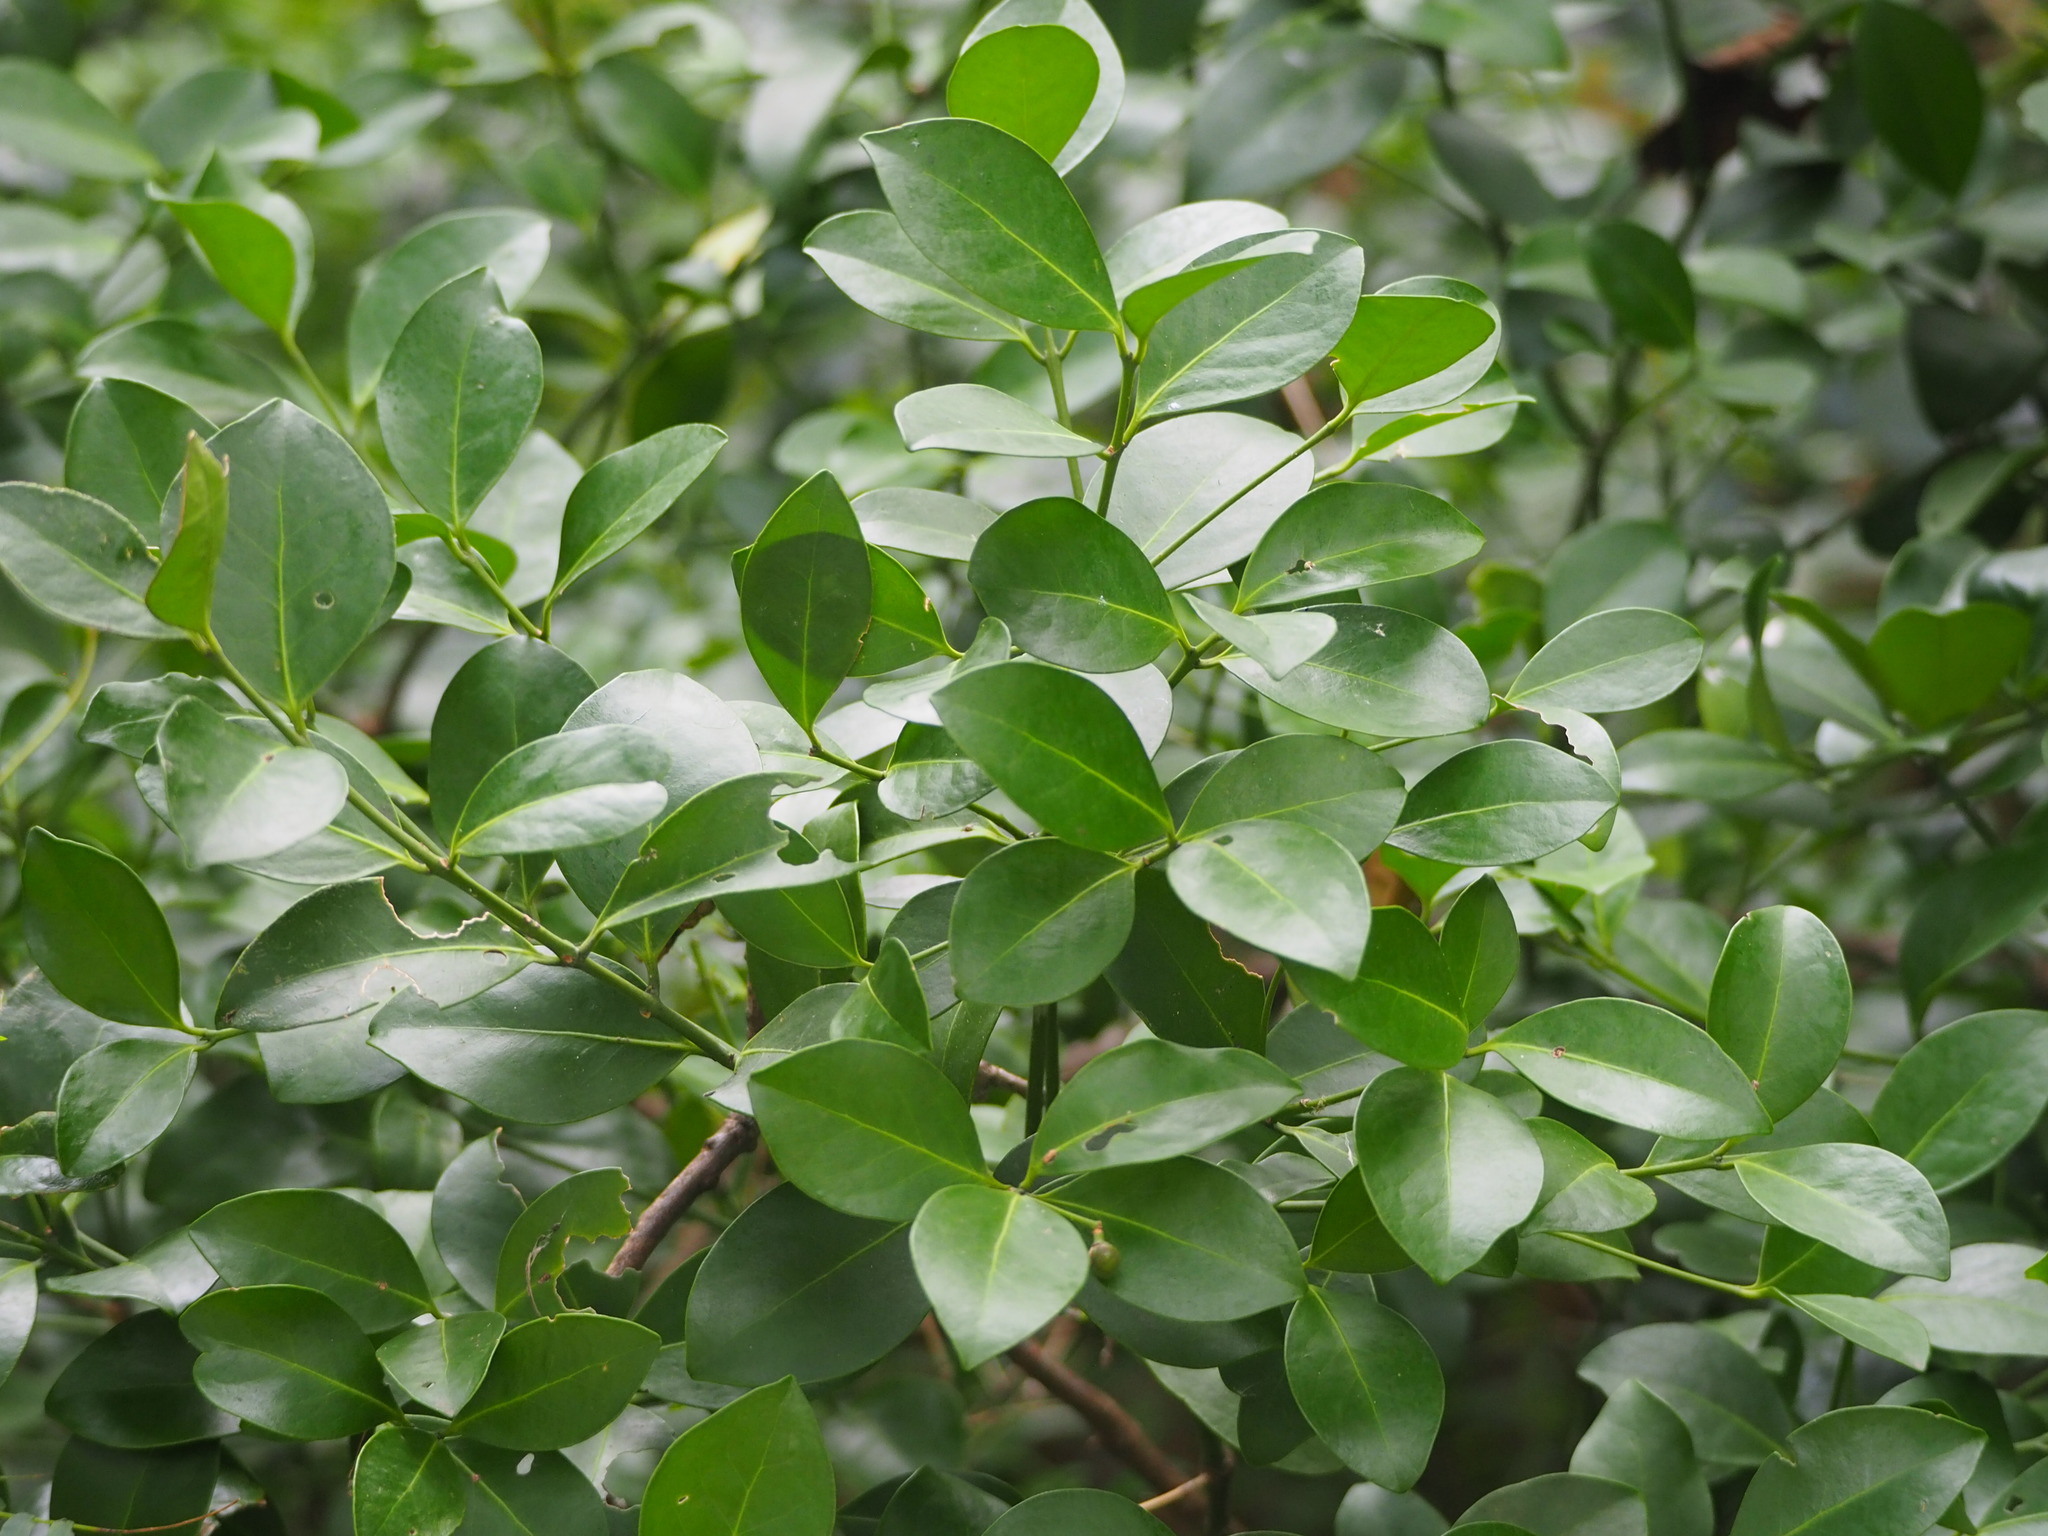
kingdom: Plantae
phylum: Tracheophyta
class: Magnoliopsida
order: Celastrales
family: Celastraceae
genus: Euonymus
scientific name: Euonymus pallidifolius
